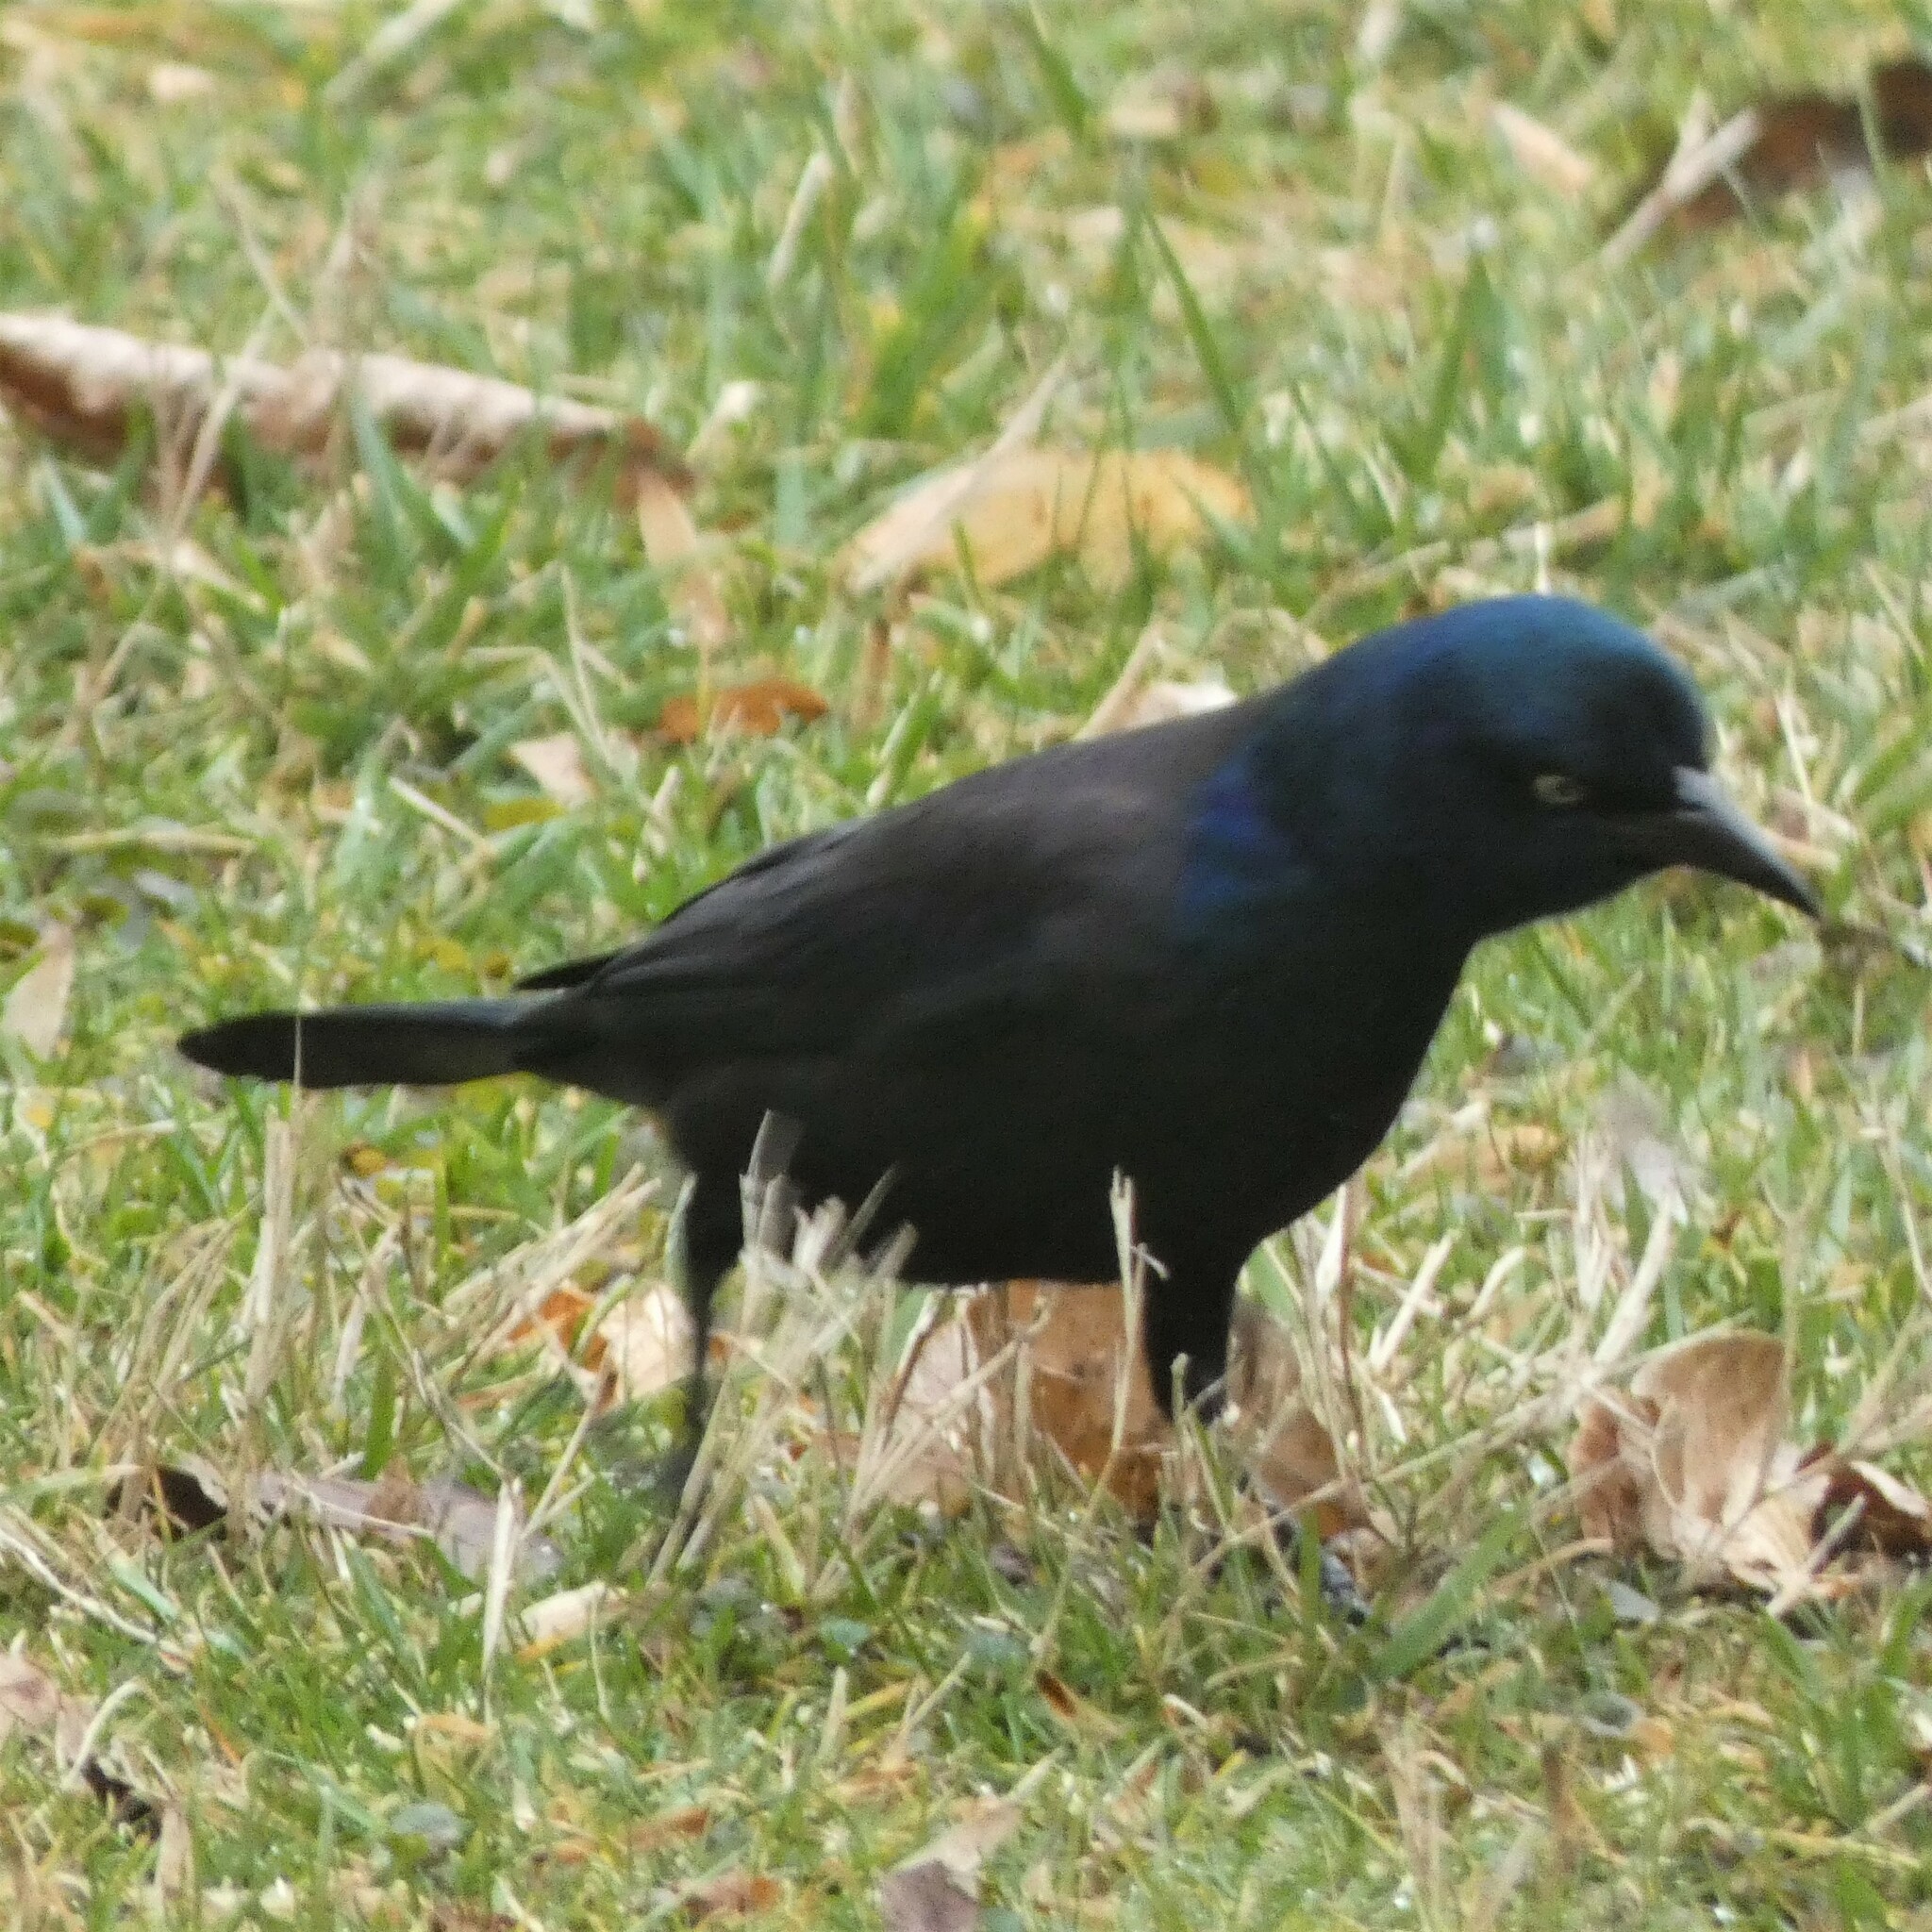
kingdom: Animalia
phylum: Chordata
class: Aves
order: Passeriformes
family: Icteridae
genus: Quiscalus
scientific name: Quiscalus quiscula
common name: Common grackle
